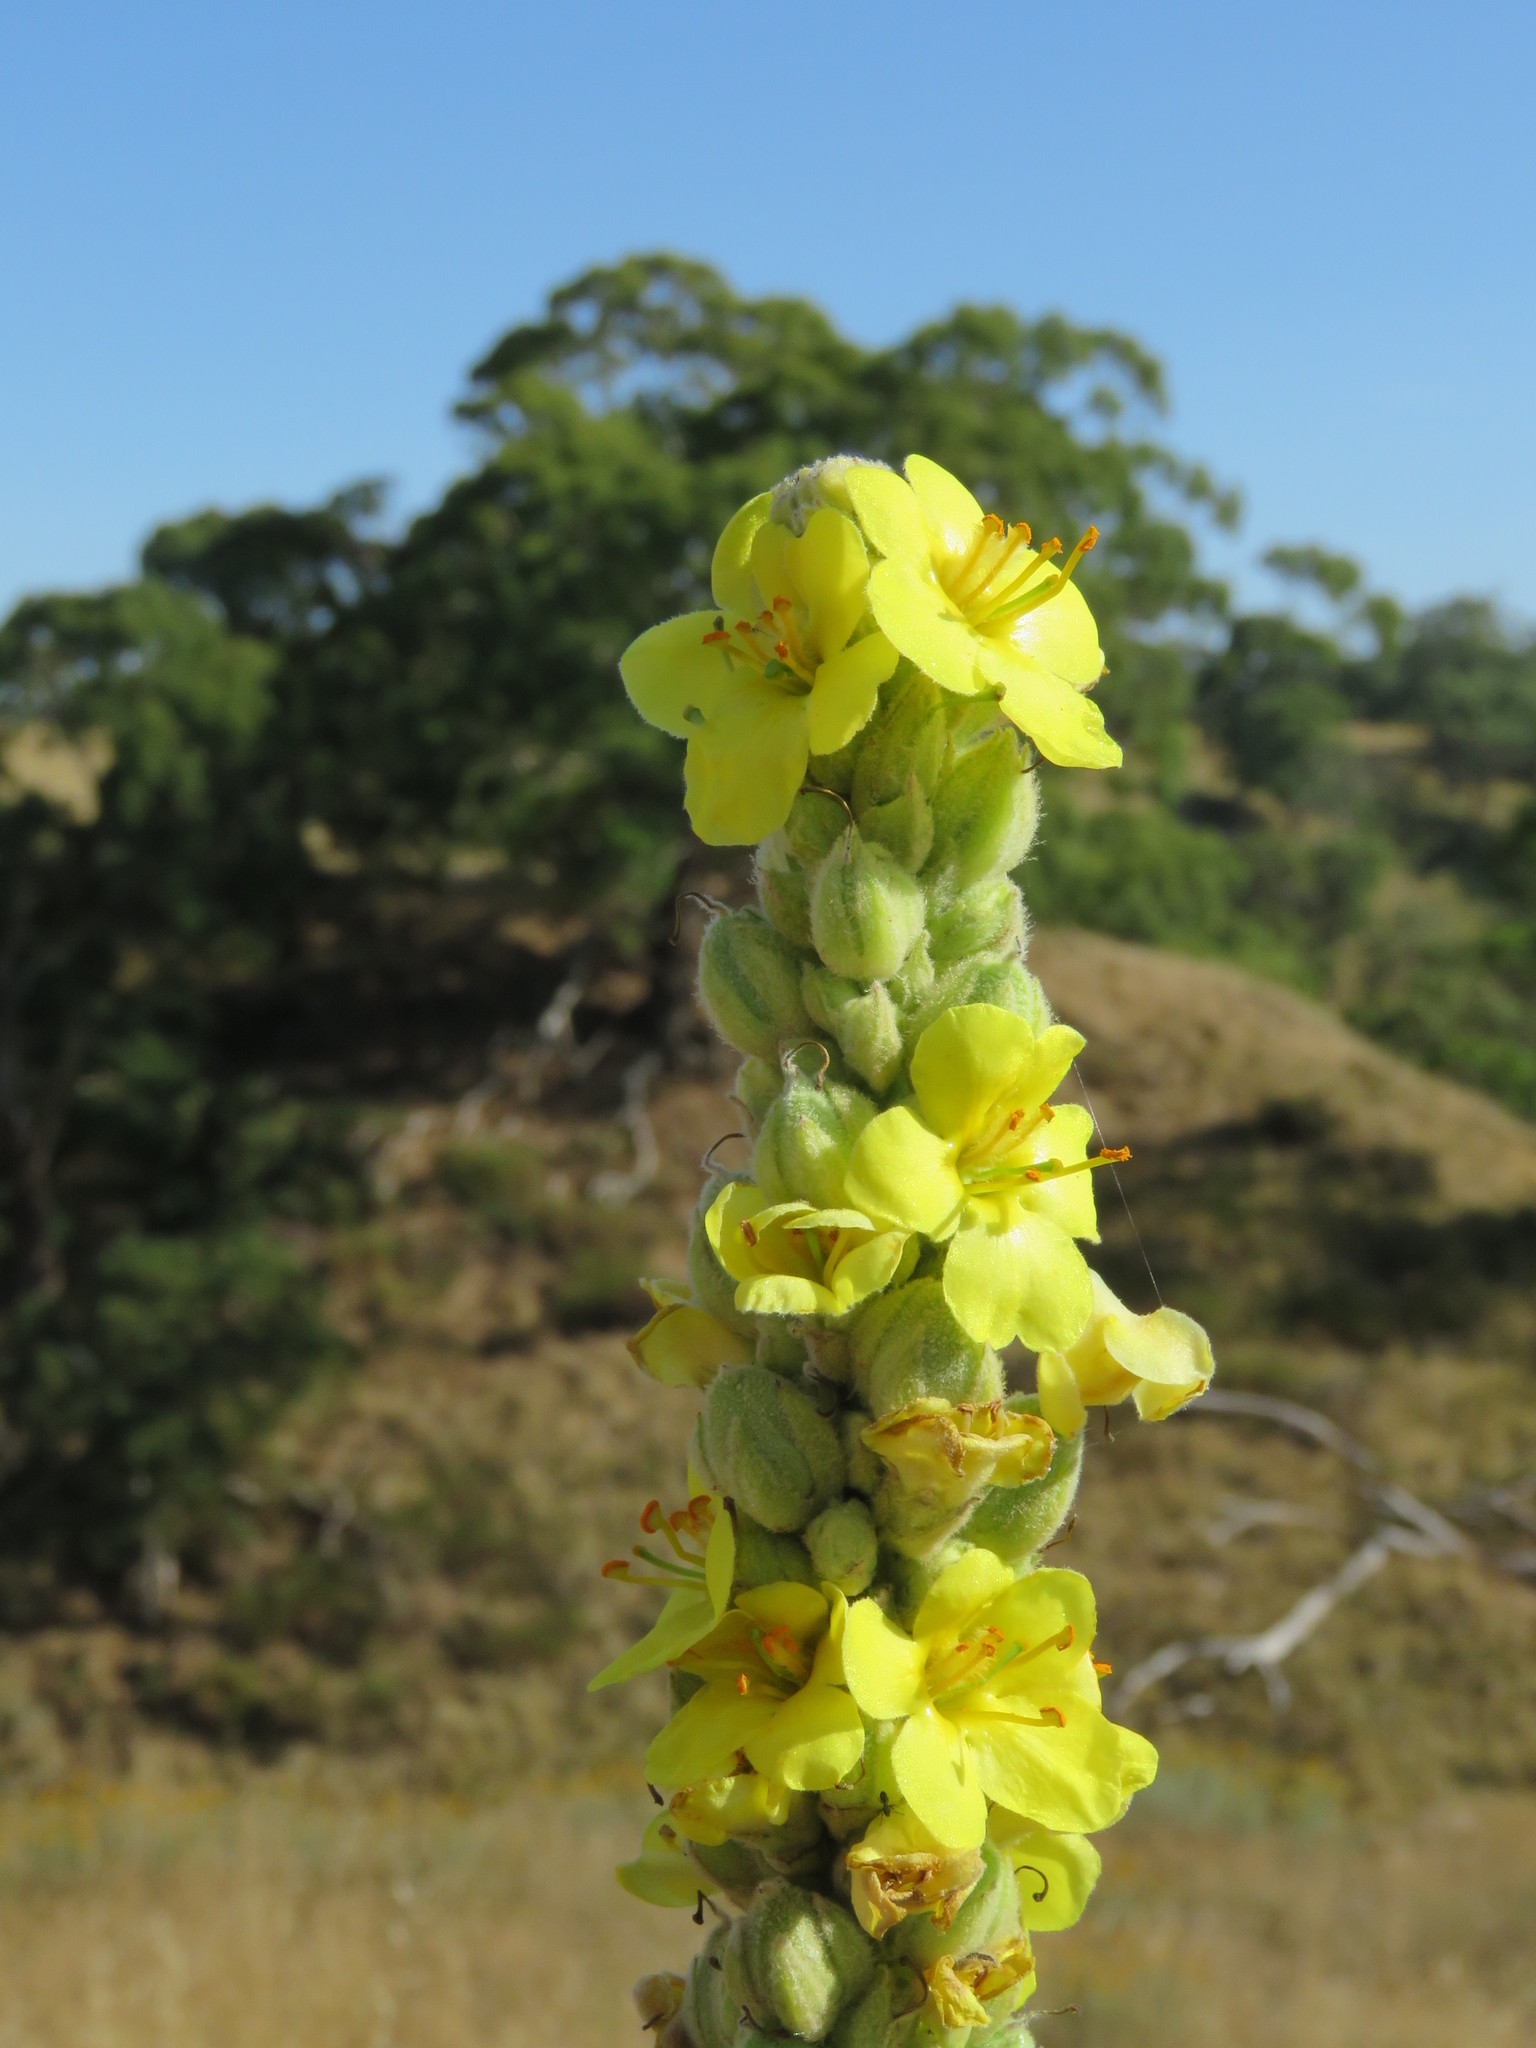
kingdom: Plantae
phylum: Tracheophyta
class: Magnoliopsida
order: Lamiales
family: Scrophulariaceae
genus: Verbascum
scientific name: Verbascum thapsus
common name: Common mullein
